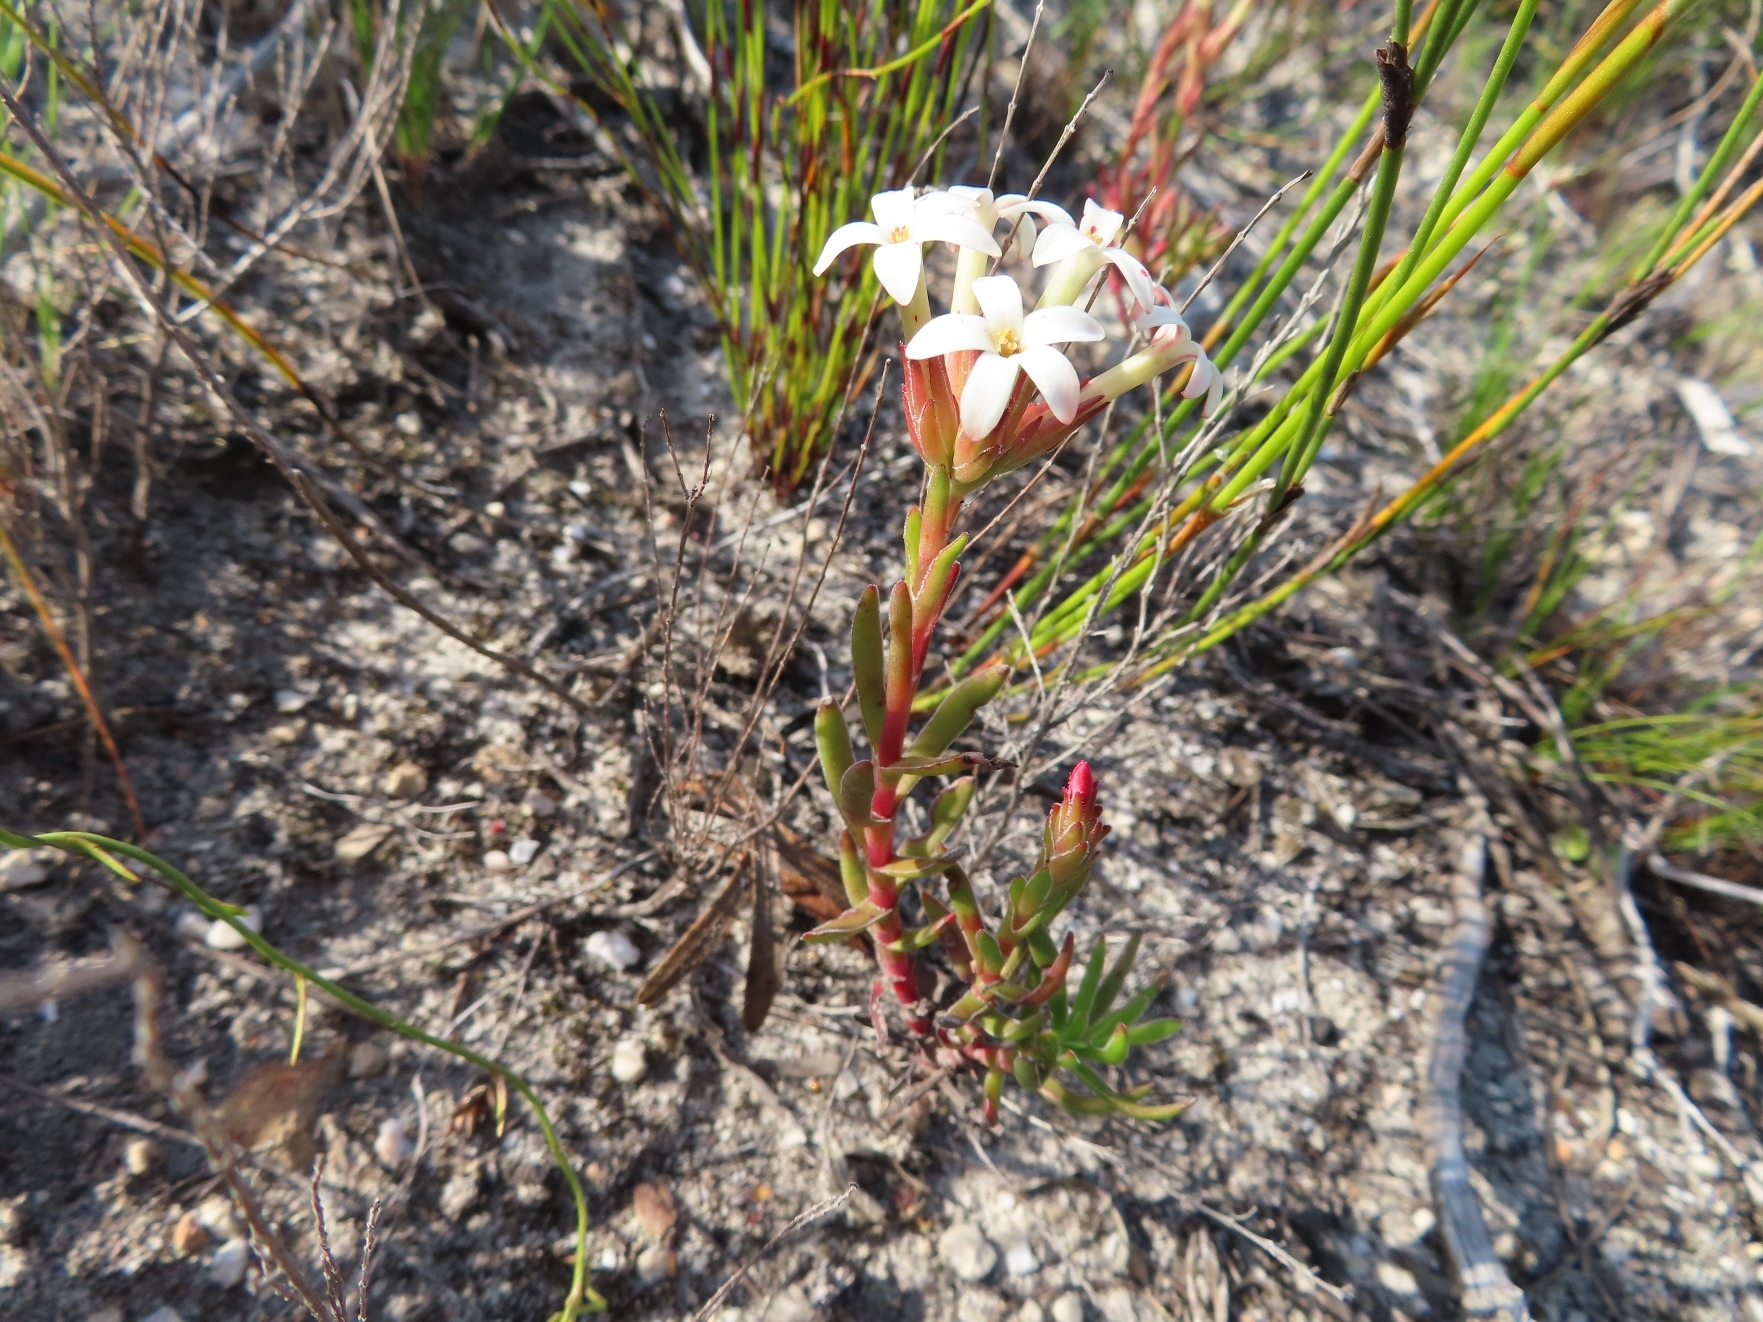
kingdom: Plantae
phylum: Tracheophyta
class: Magnoliopsida
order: Saxifragales
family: Crassulaceae
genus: Crassula
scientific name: Crassula fascicularis
